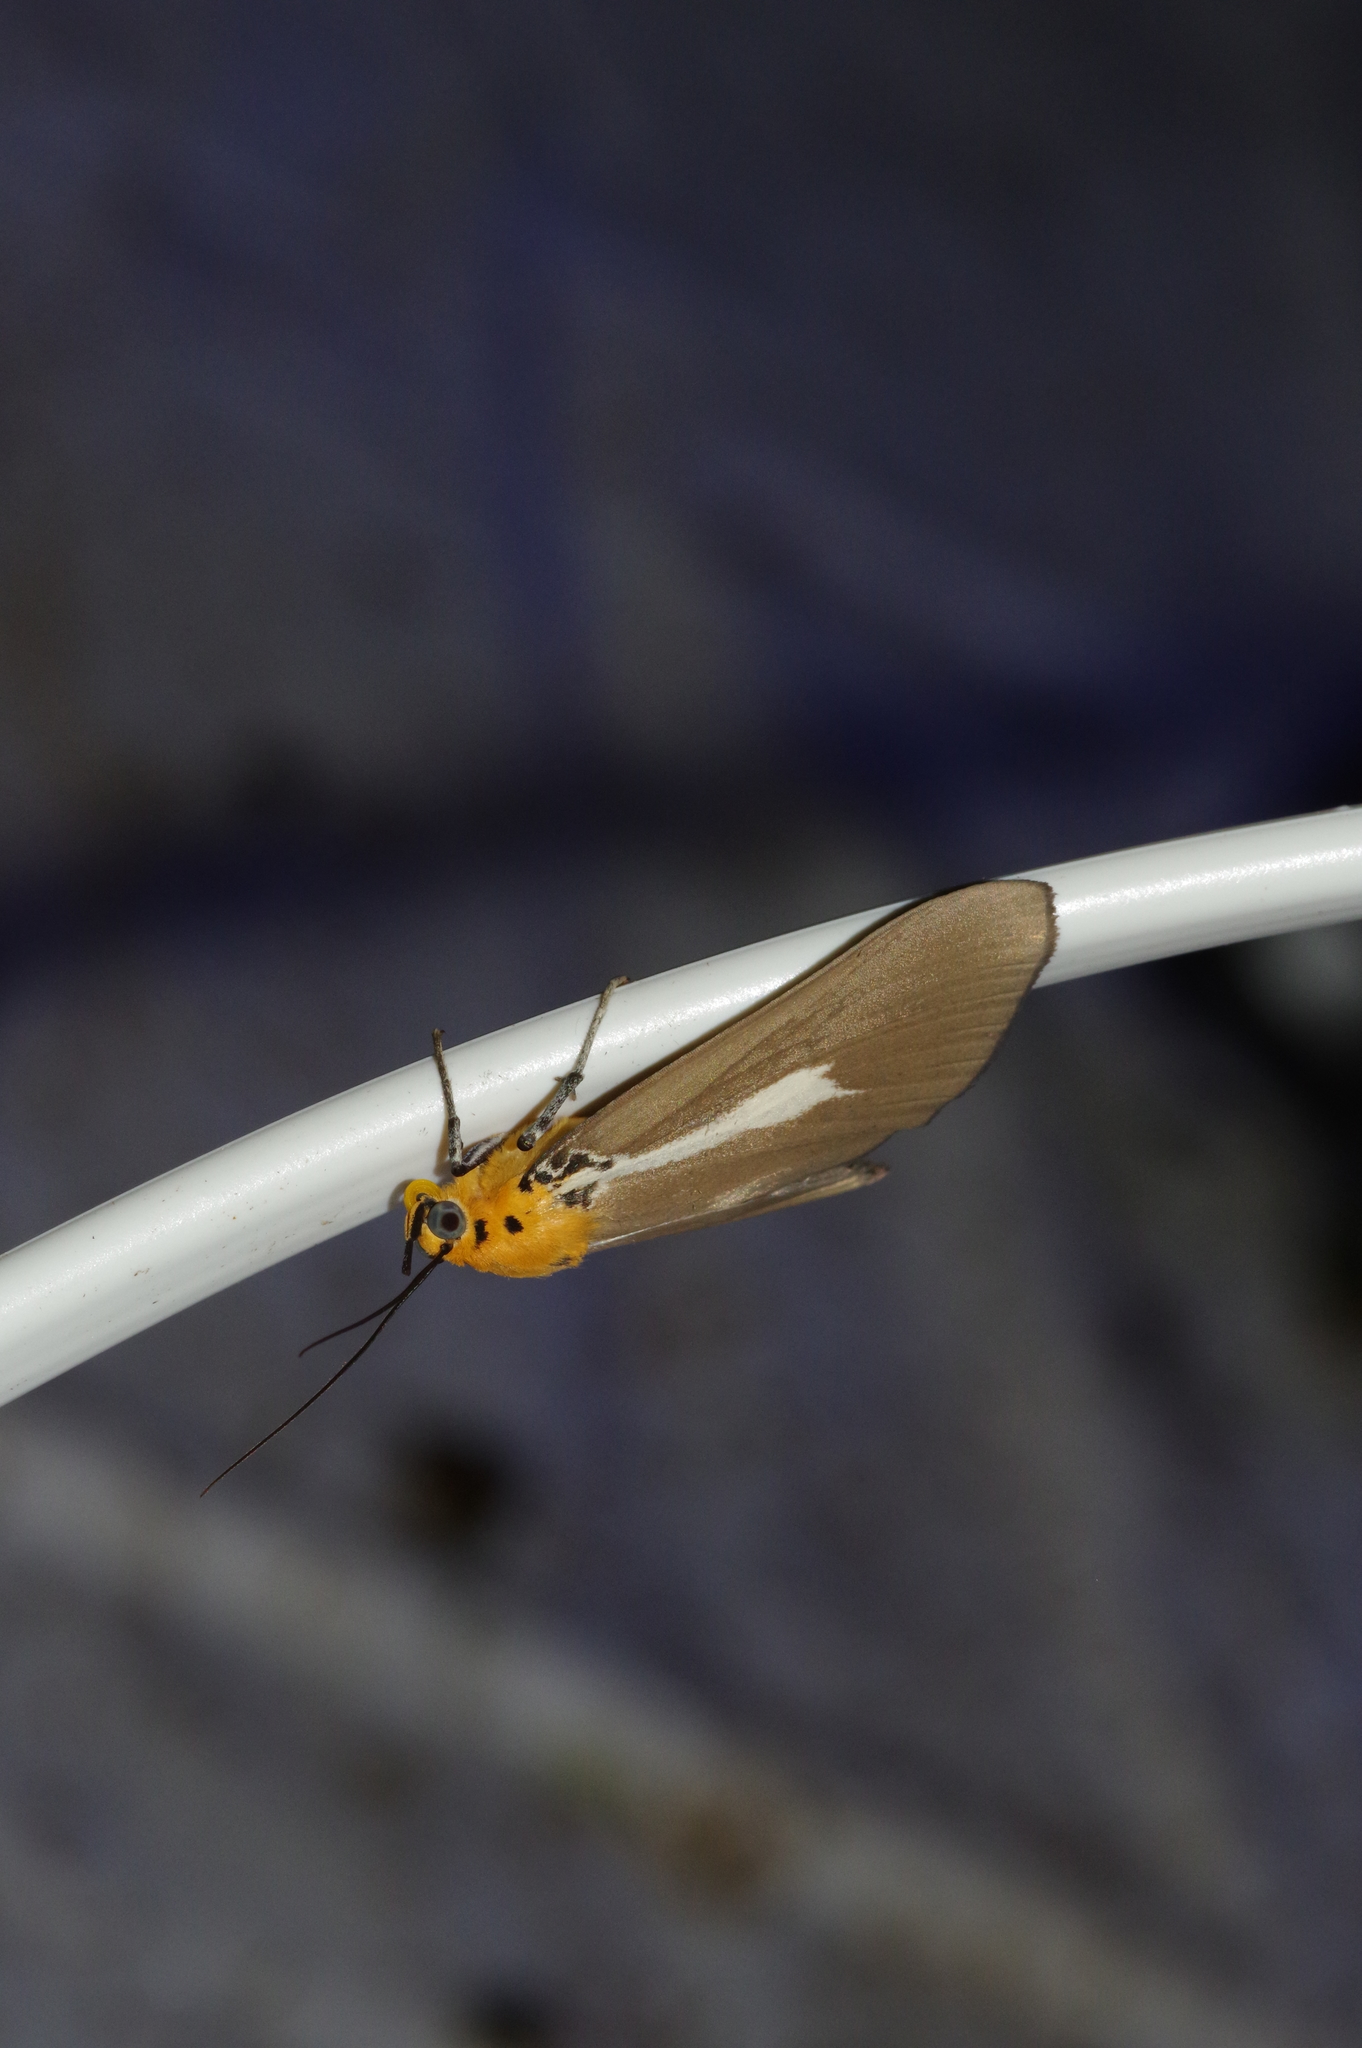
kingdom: Animalia
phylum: Arthropoda
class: Insecta
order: Lepidoptera
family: Erebidae
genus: Asota
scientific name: Asota heliconia
